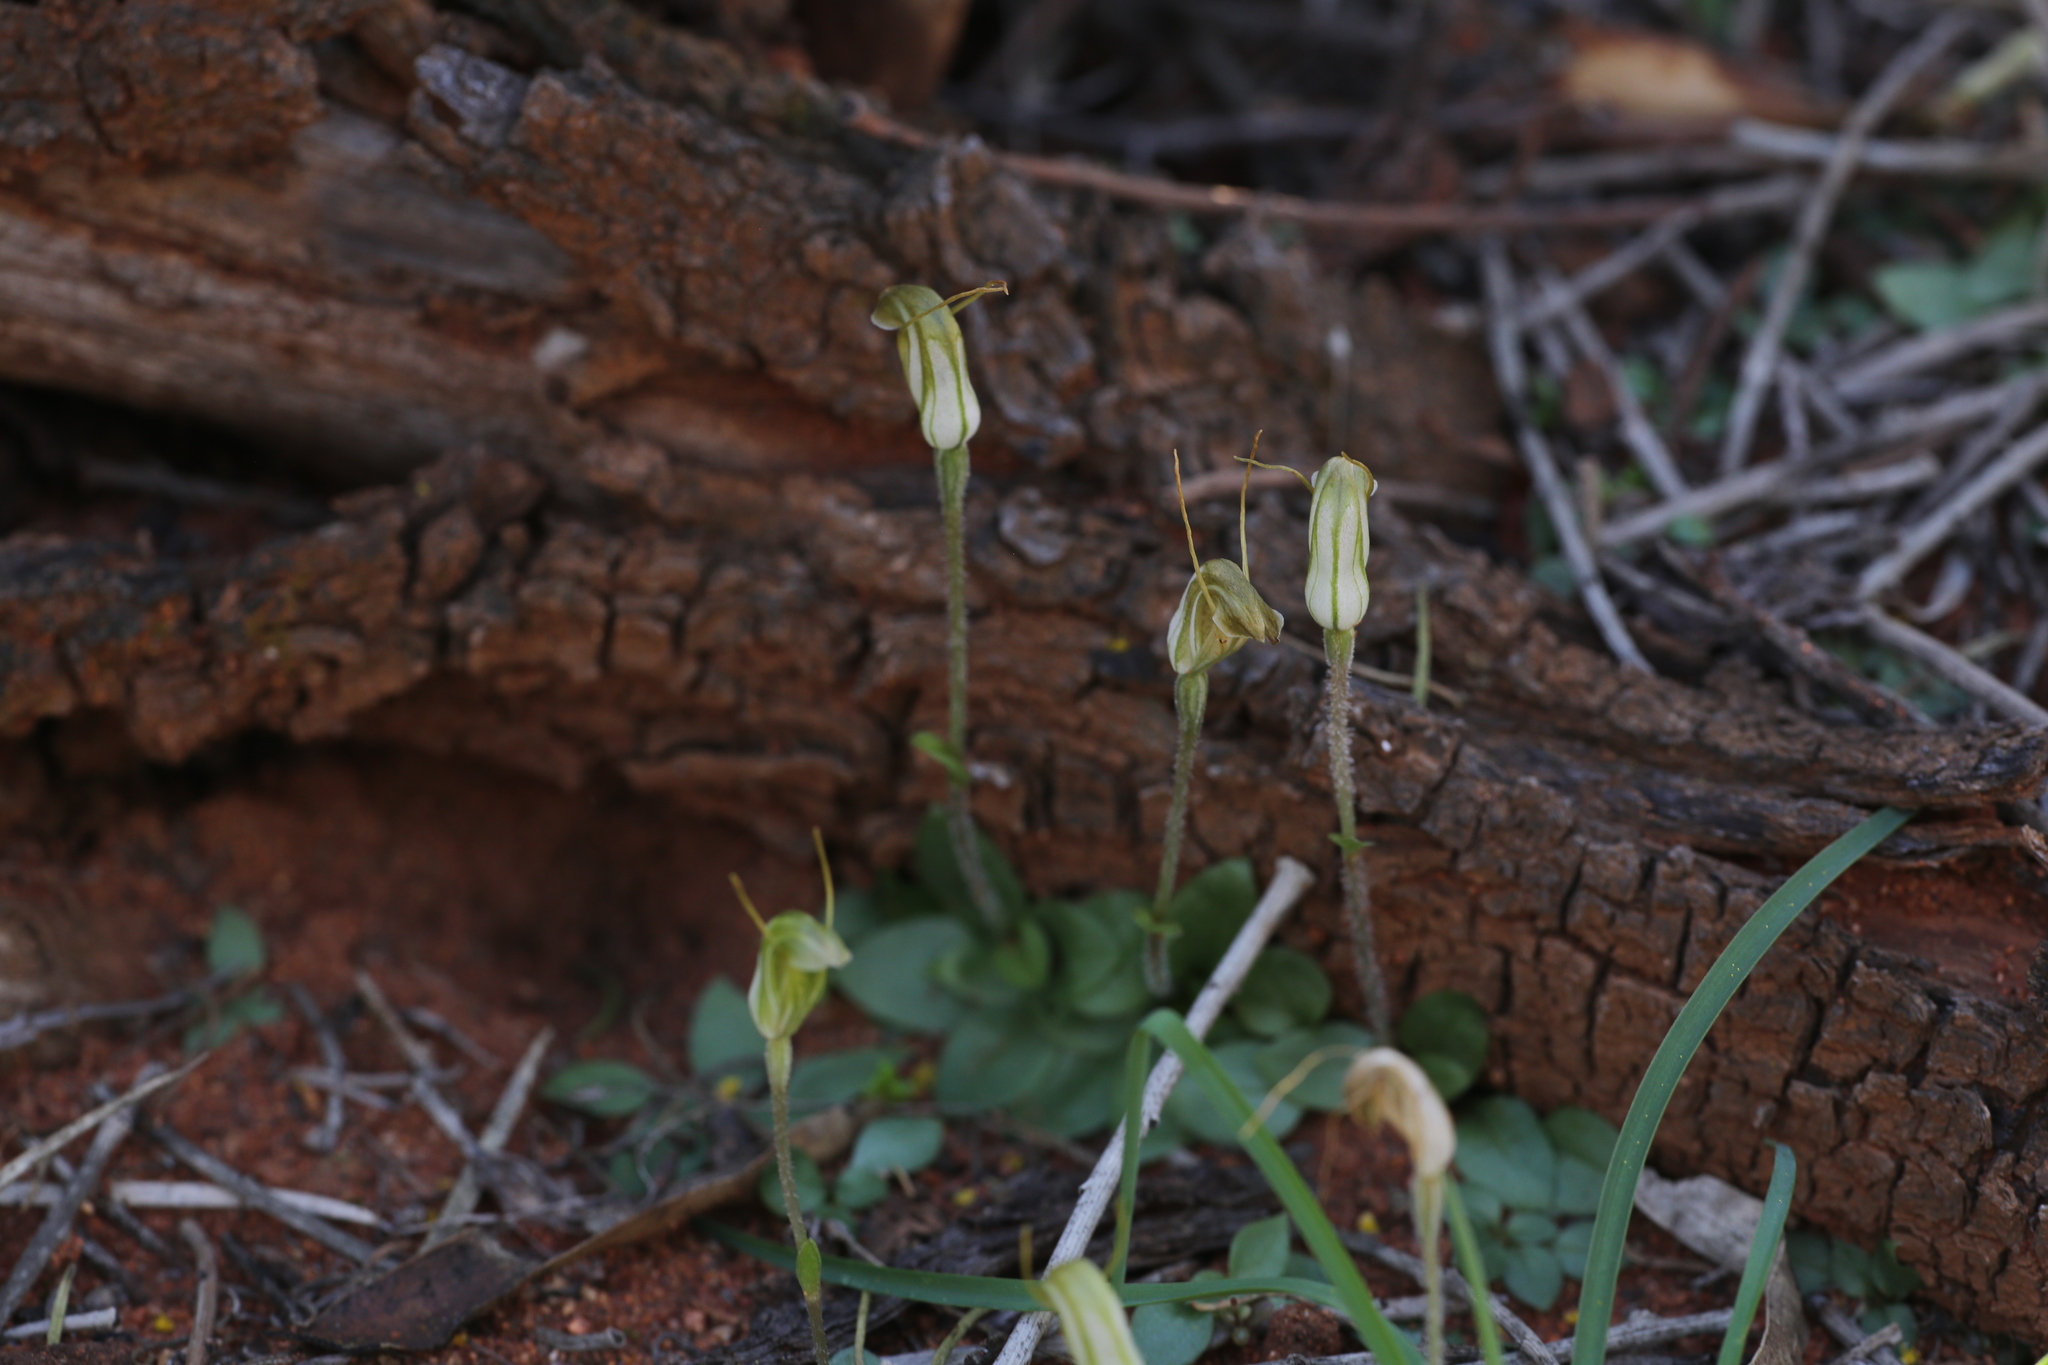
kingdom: Plantae
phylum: Tracheophyta
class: Liliopsida
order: Asparagales
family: Orchidaceae
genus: Pterostylis
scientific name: Pterostylis setulosa
